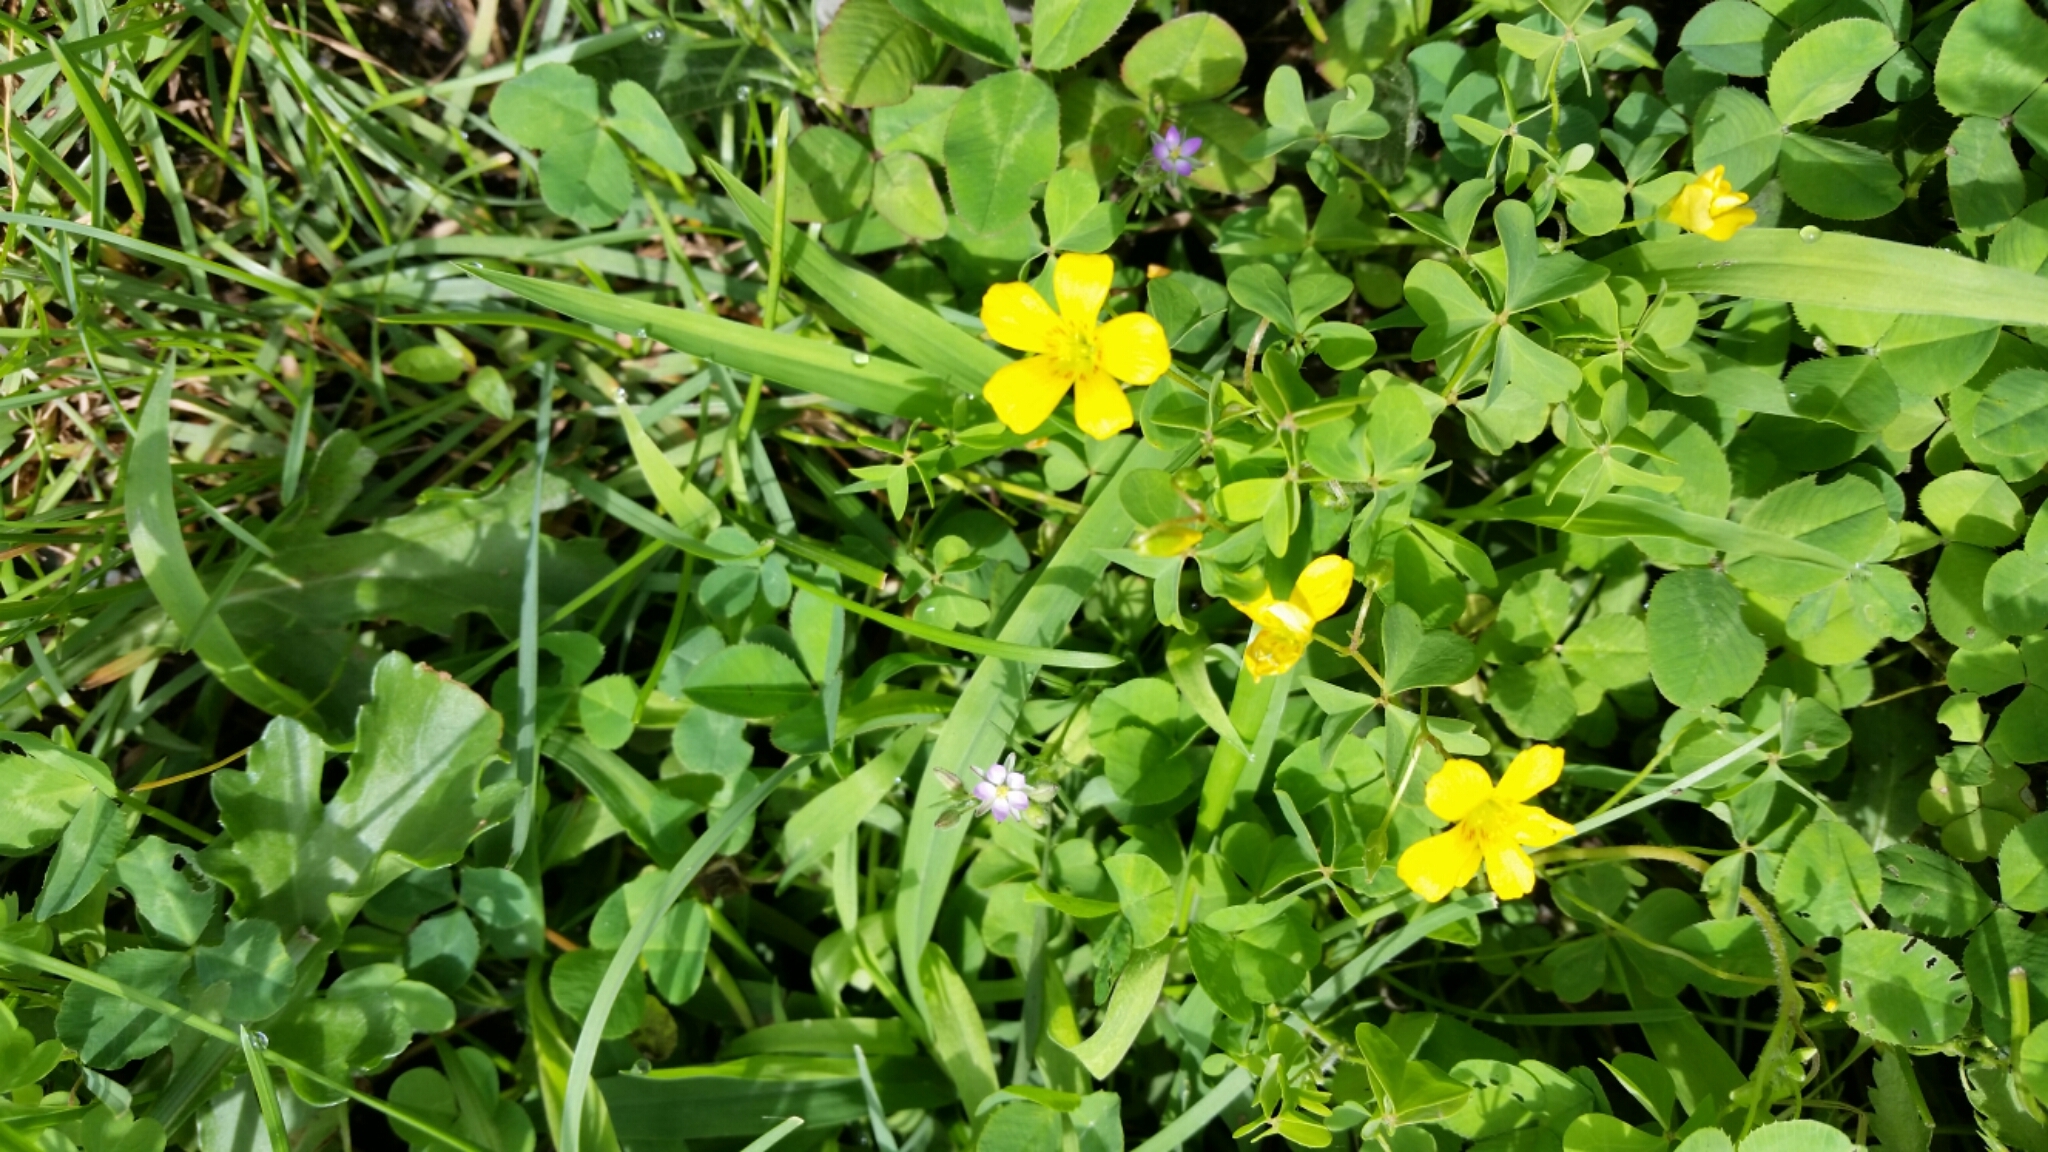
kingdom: Plantae
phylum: Tracheophyta
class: Magnoliopsida
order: Oxalidales
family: Oxalidaceae
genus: Oxalis
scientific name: Oxalis stricta
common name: Upright yellow-sorrel
